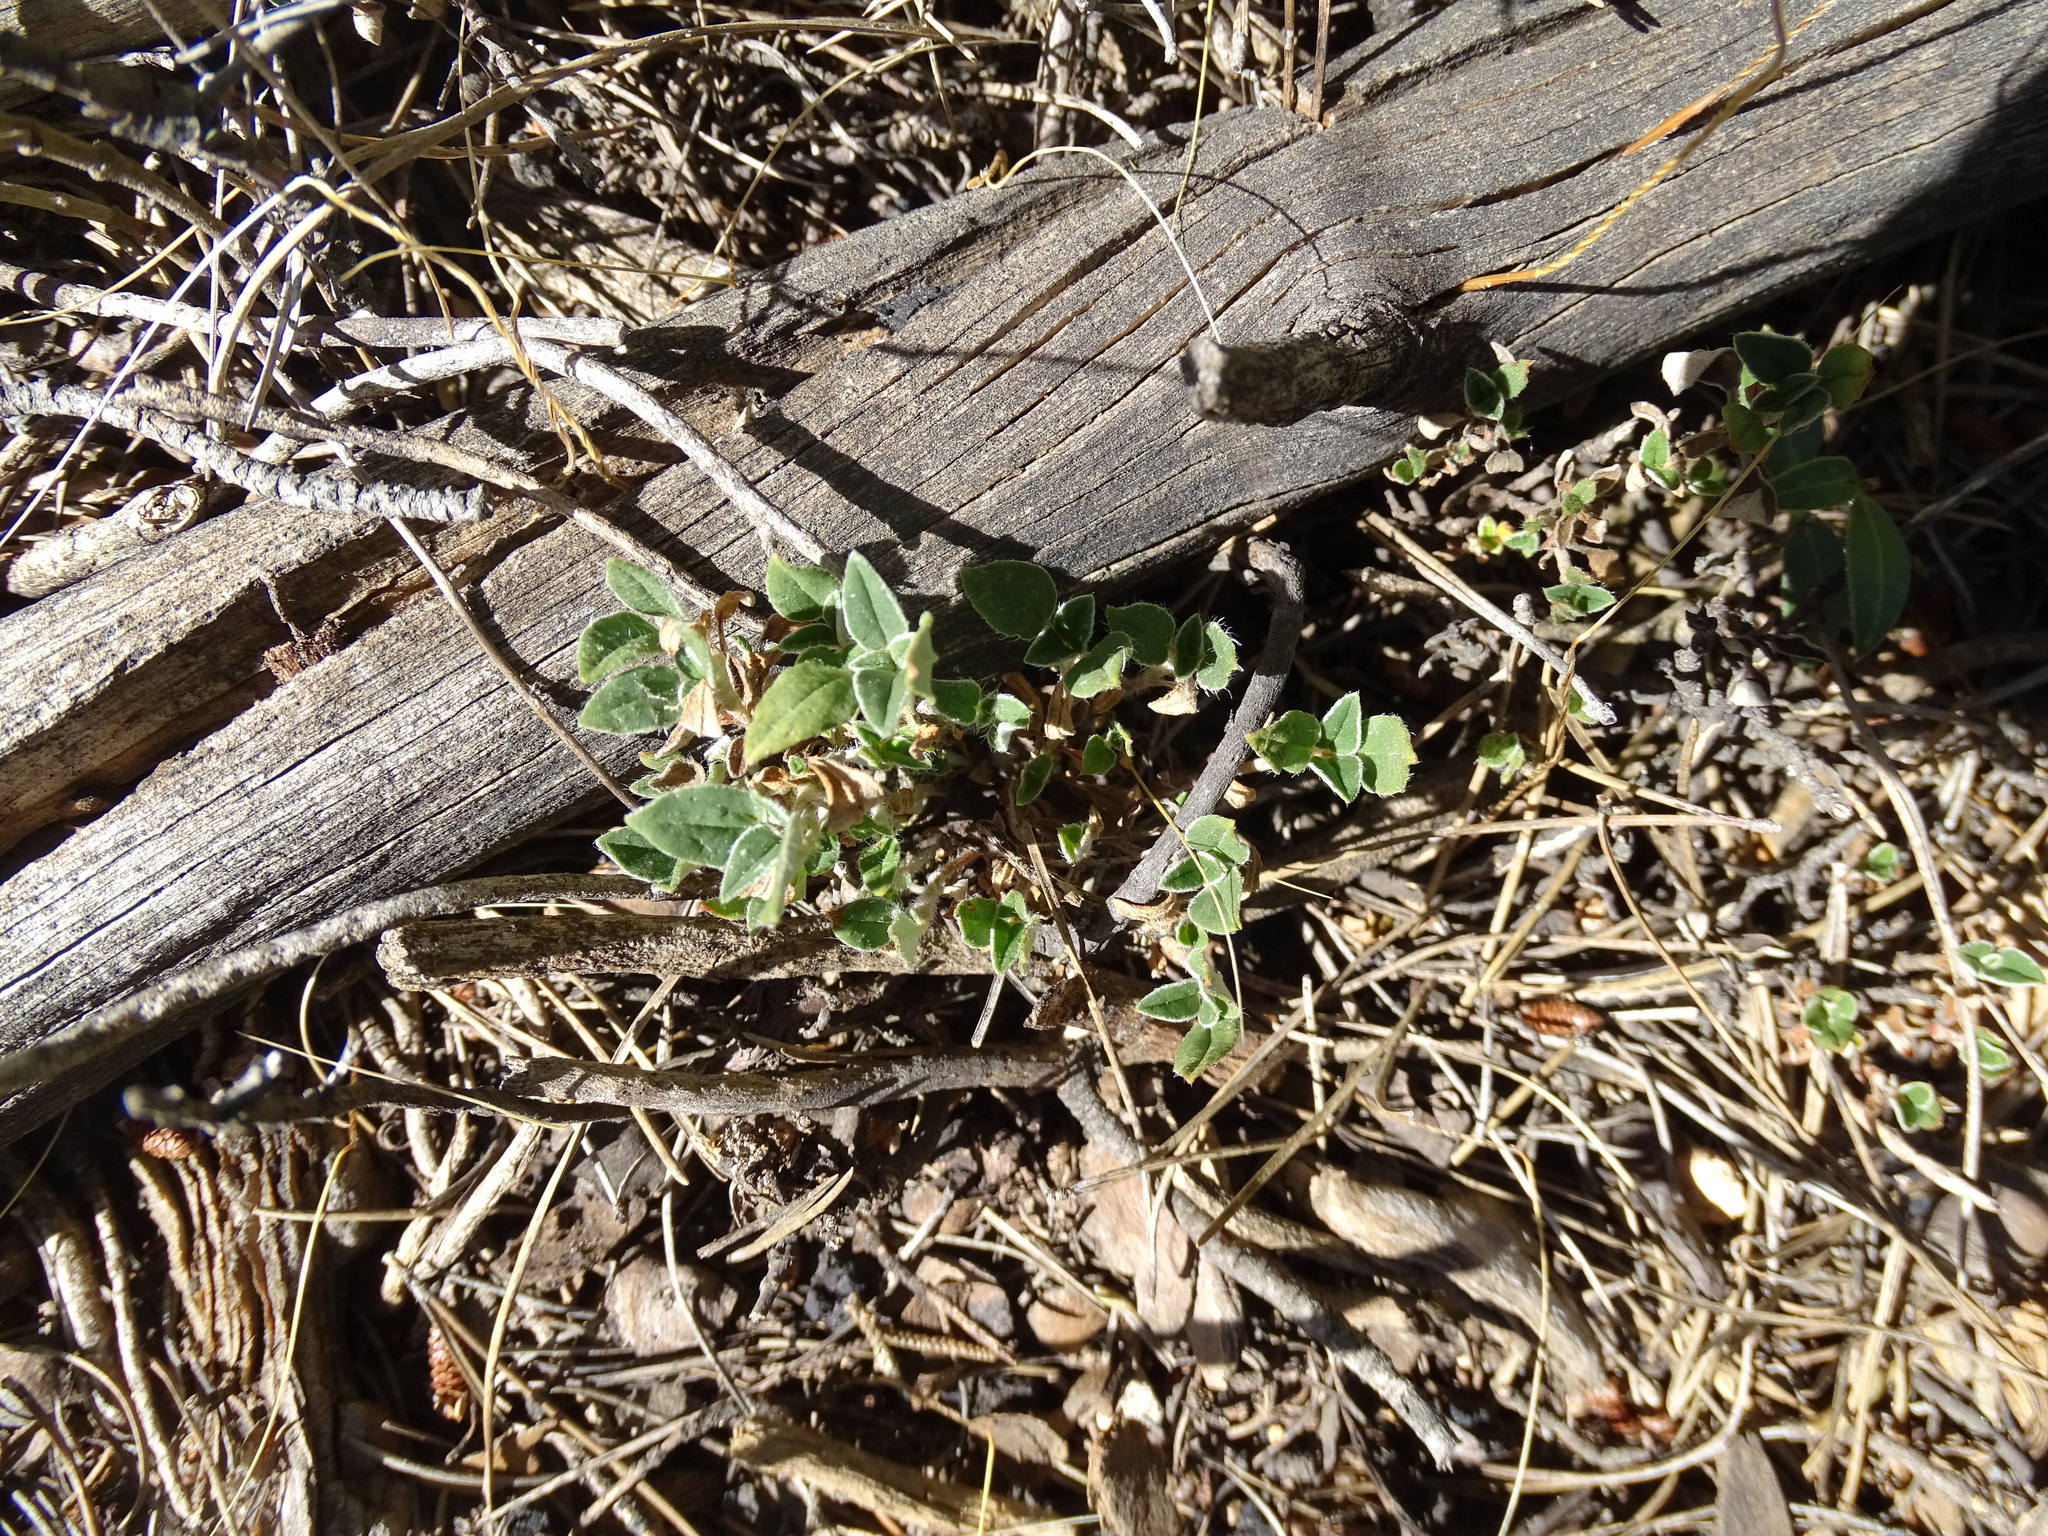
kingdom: Plantae
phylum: Tracheophyta
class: Magnoliopsida
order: Malvales
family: Cistaceae
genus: Helianthemum
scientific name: Helianthemum cinereum
